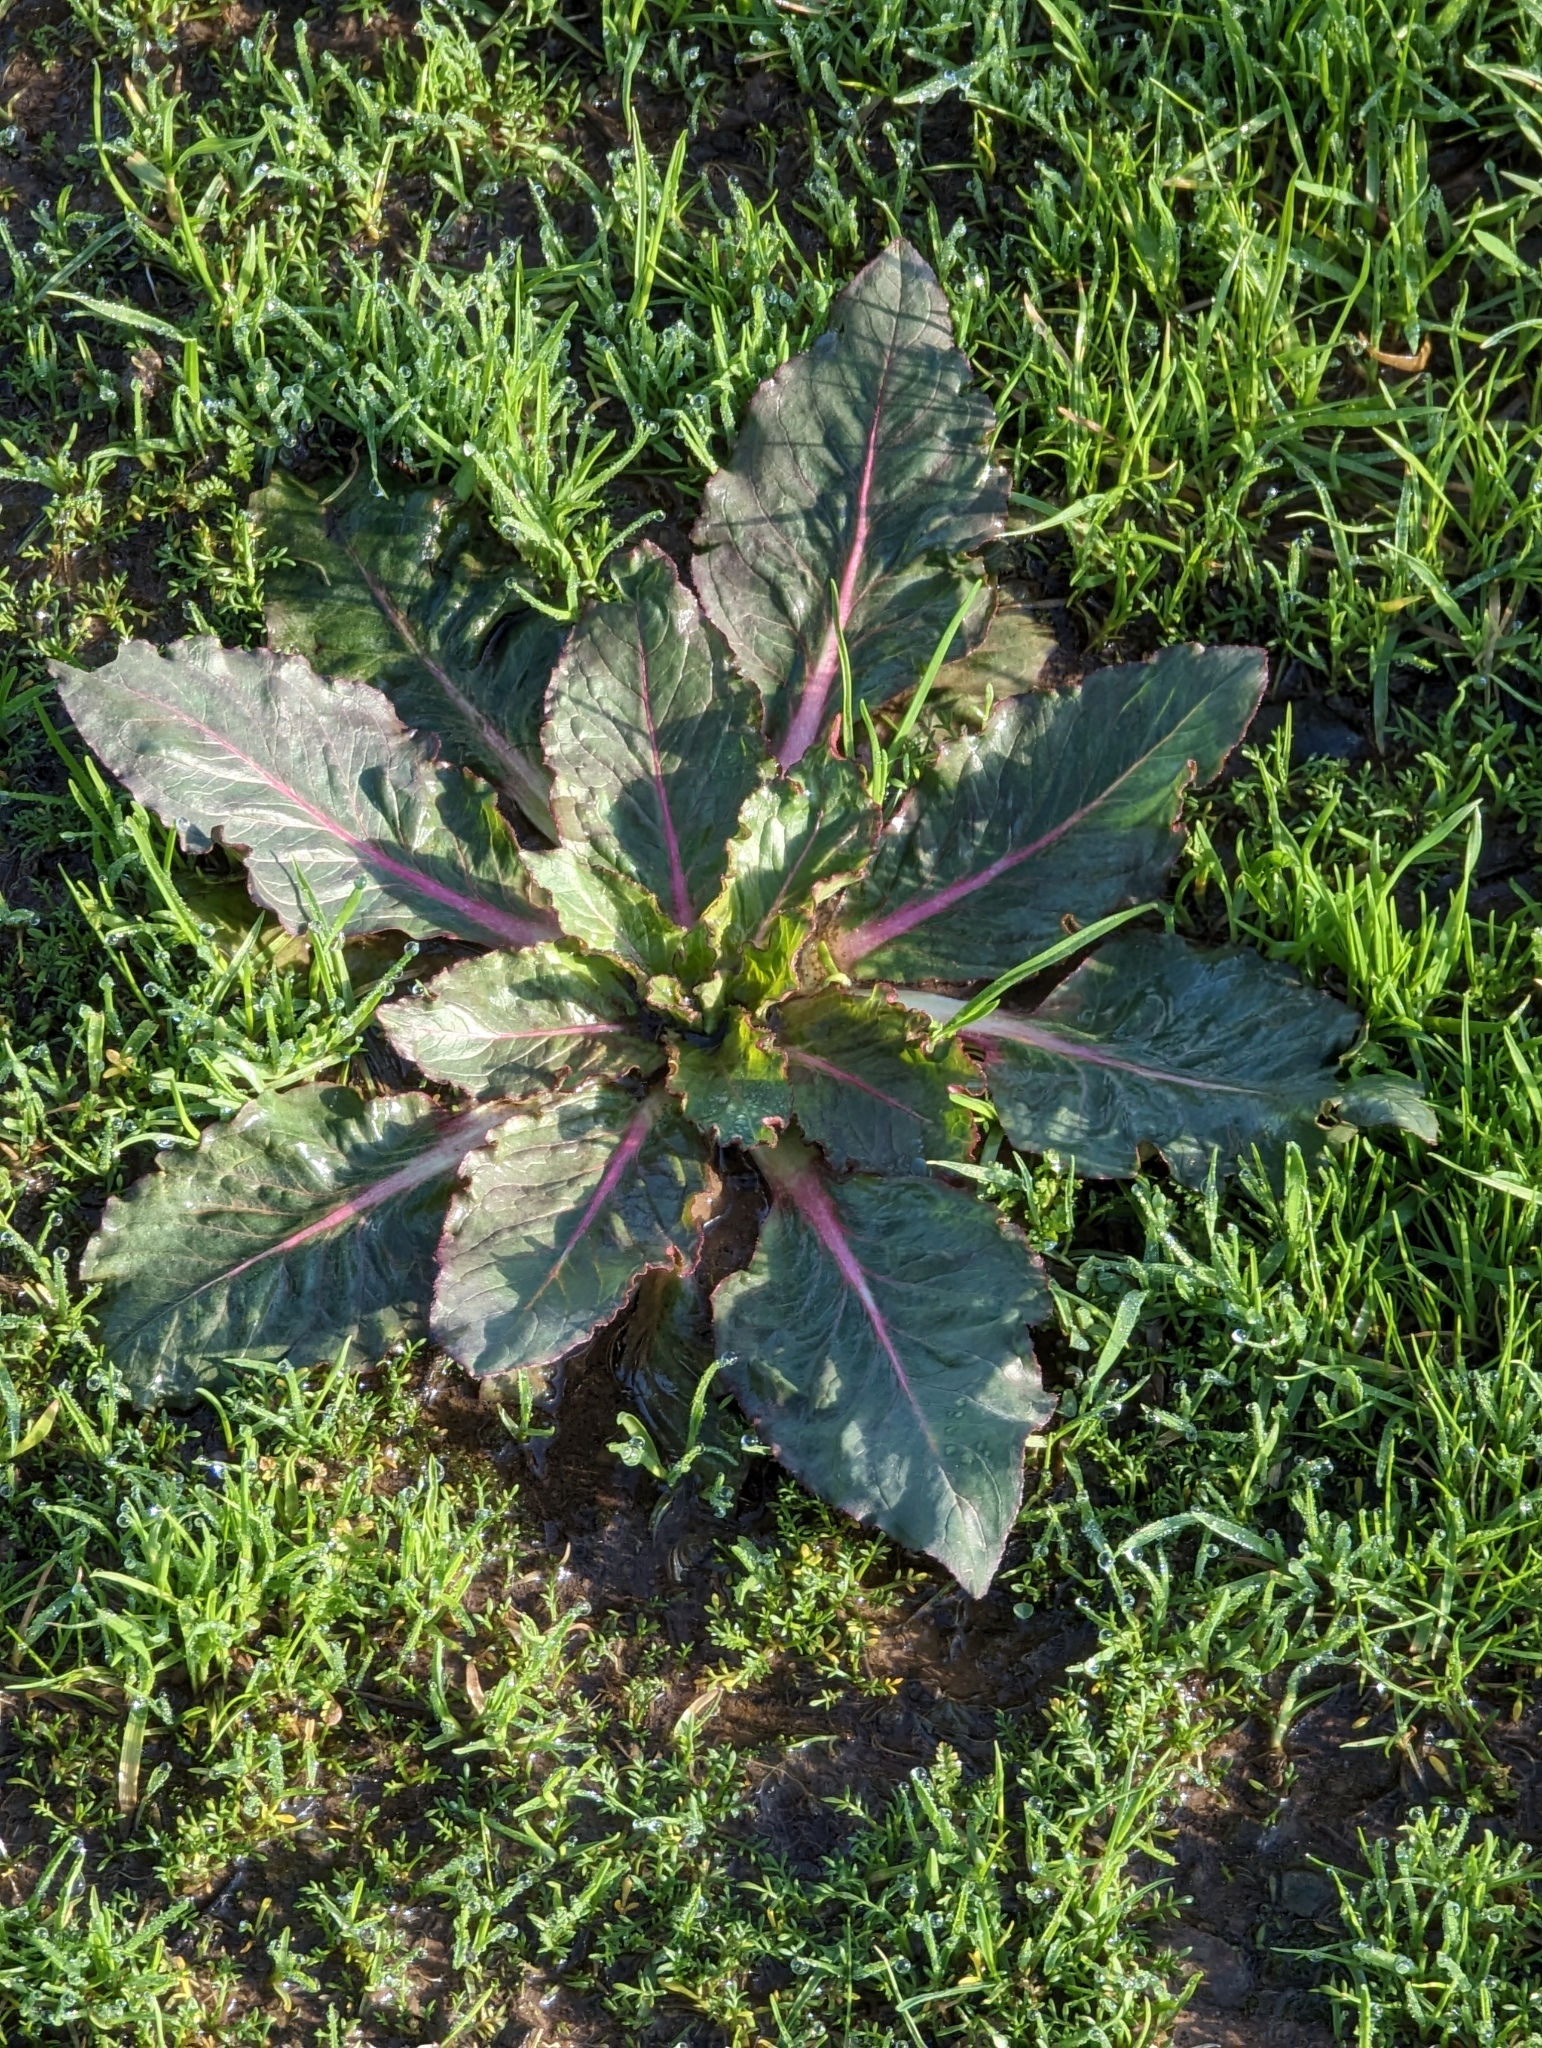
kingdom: Plantae
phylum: Tracheophyta
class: Magnoliopsida
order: Myrtales
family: Onagraceae
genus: Taraxia
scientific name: Taraxia ovata
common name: Goldeneggs
